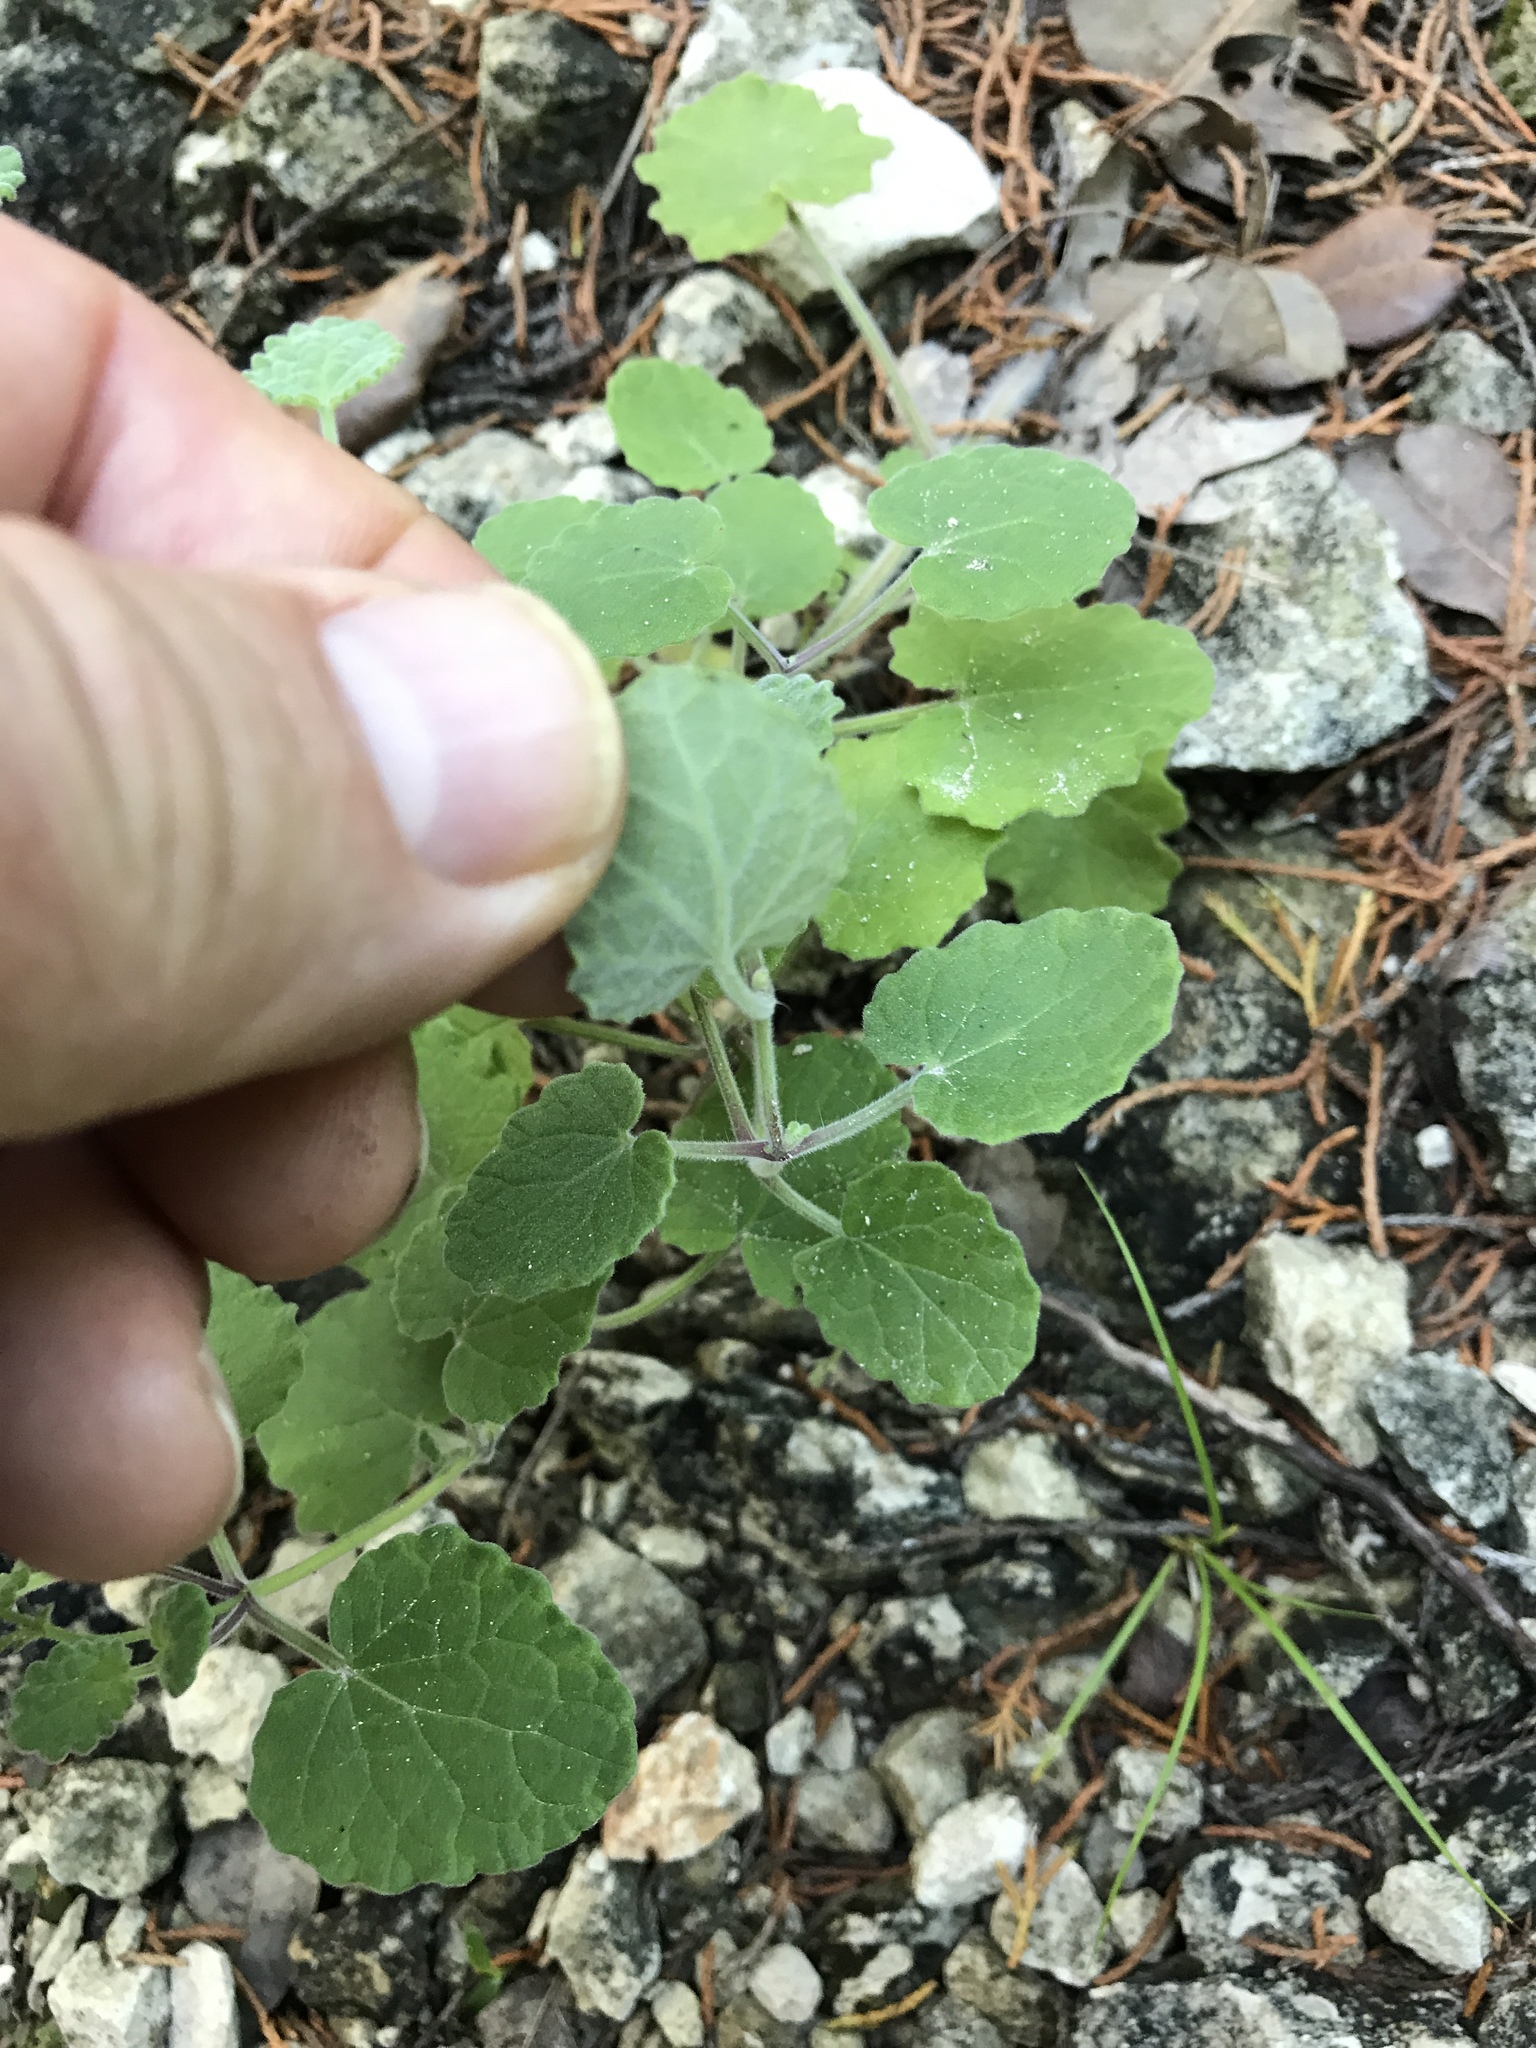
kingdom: Plantae
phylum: Tracheophyta
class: Magnoliopsida
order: Lamiales
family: Lamiaceae
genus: Salvia
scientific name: Salvia roemeriana
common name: Cedar sage
